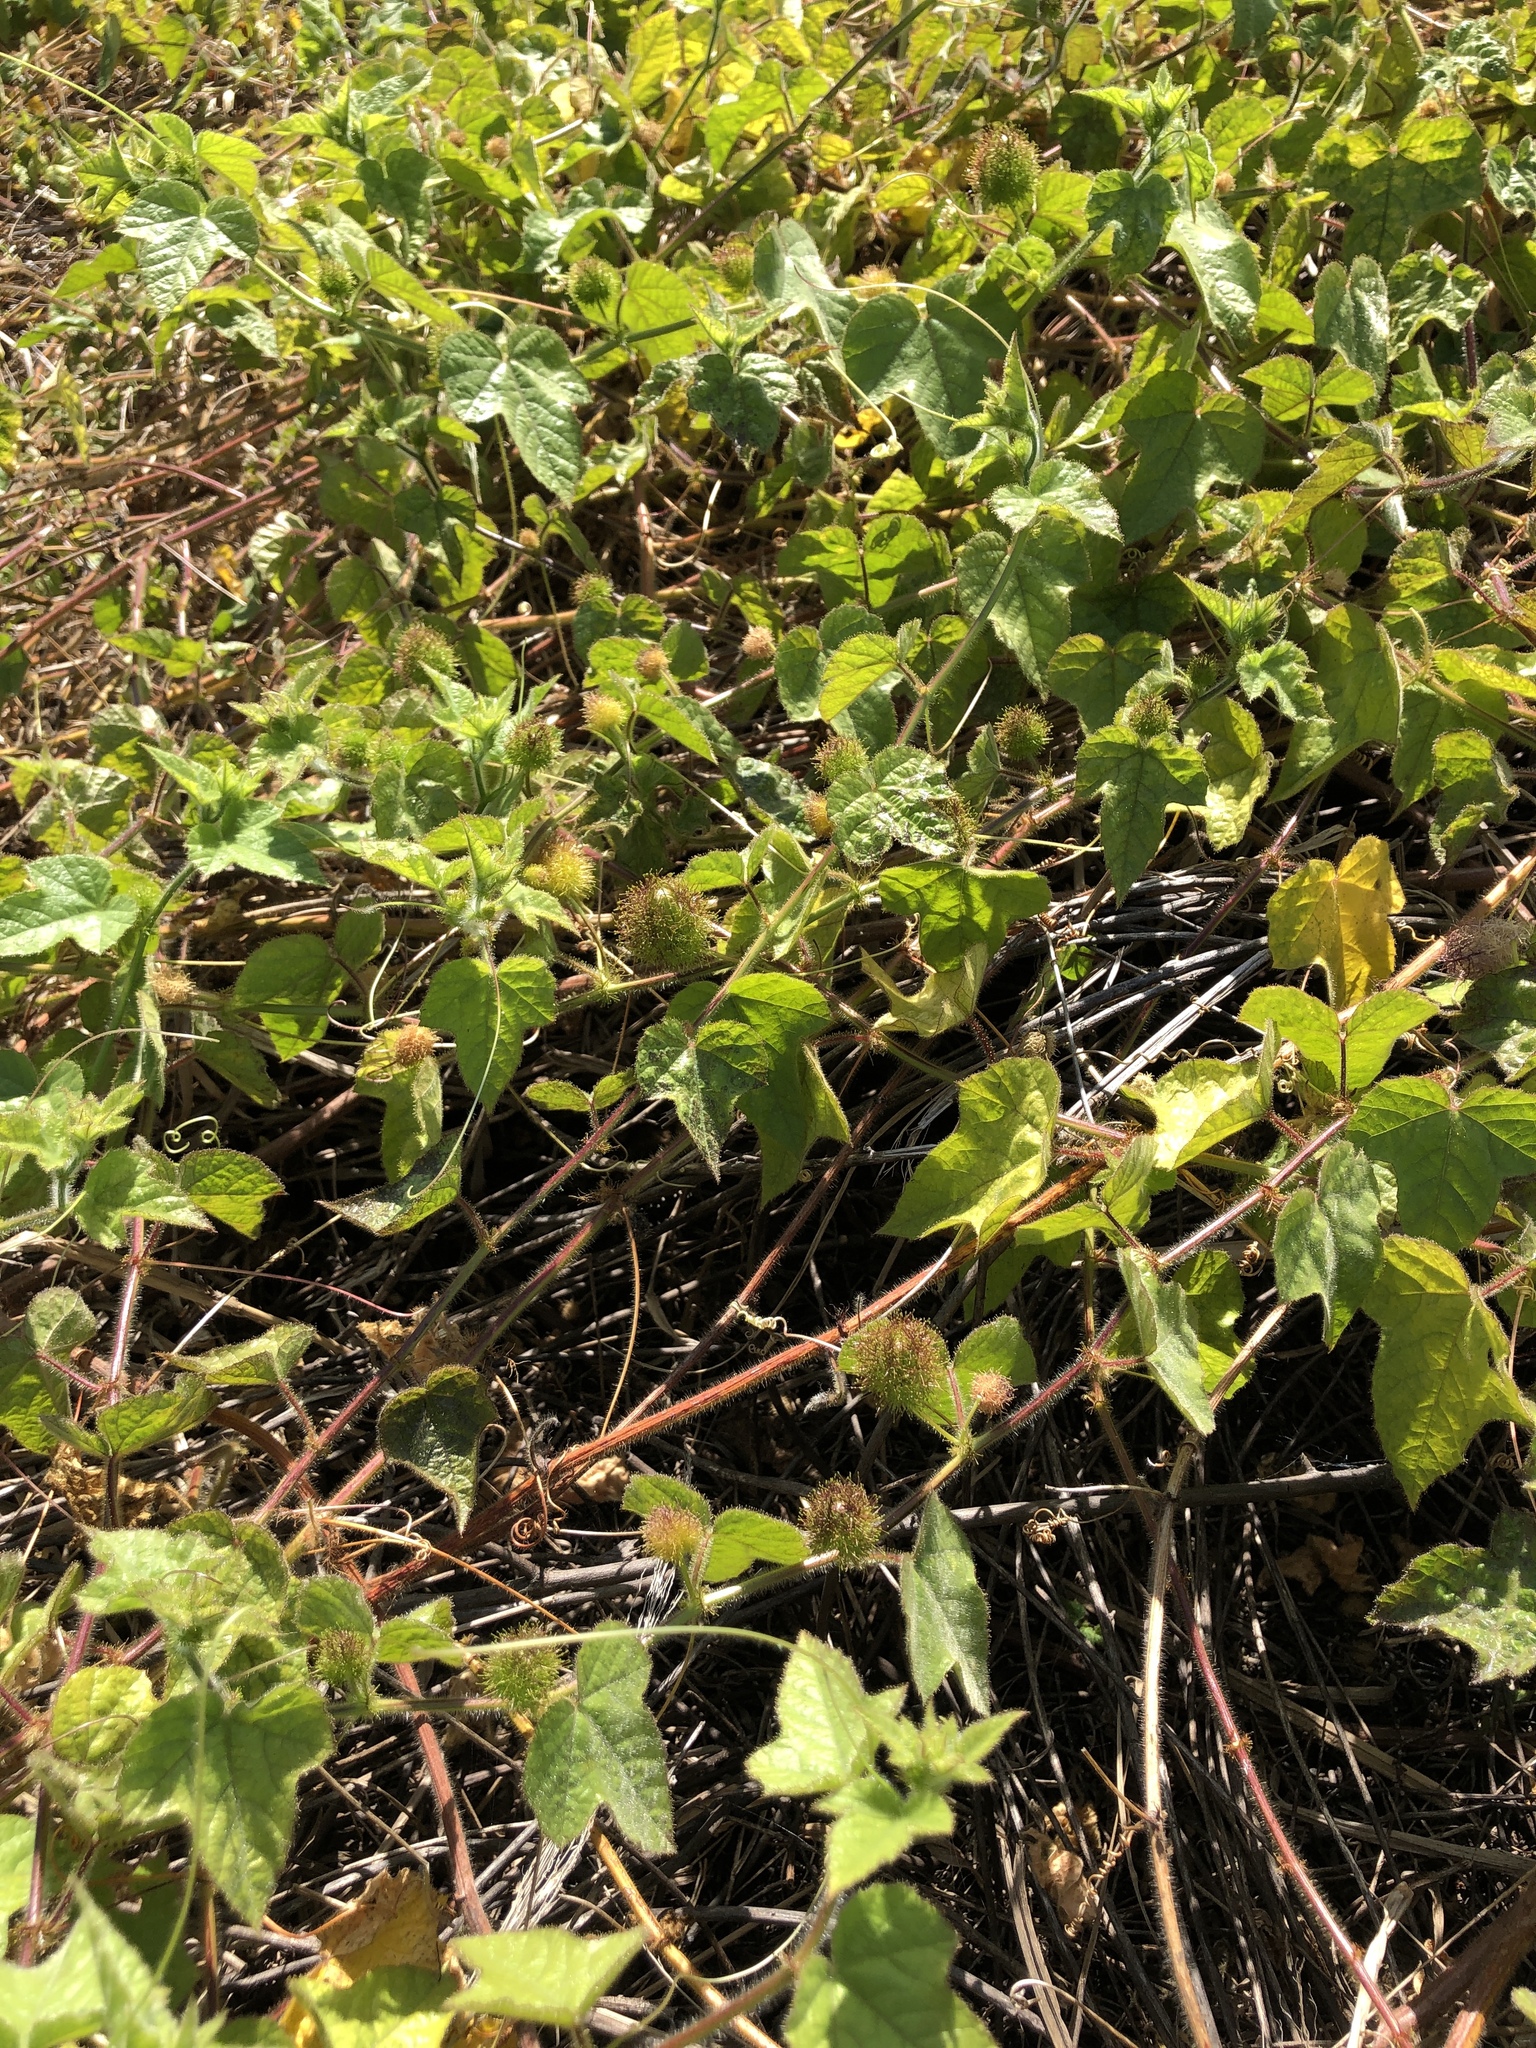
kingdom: Plantae
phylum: Tracheophyta
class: Magnoliopsida
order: Malpighiales
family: Passifloraceae
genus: Passiflora
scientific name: Passiflora foetida
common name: Fetid passionflower
